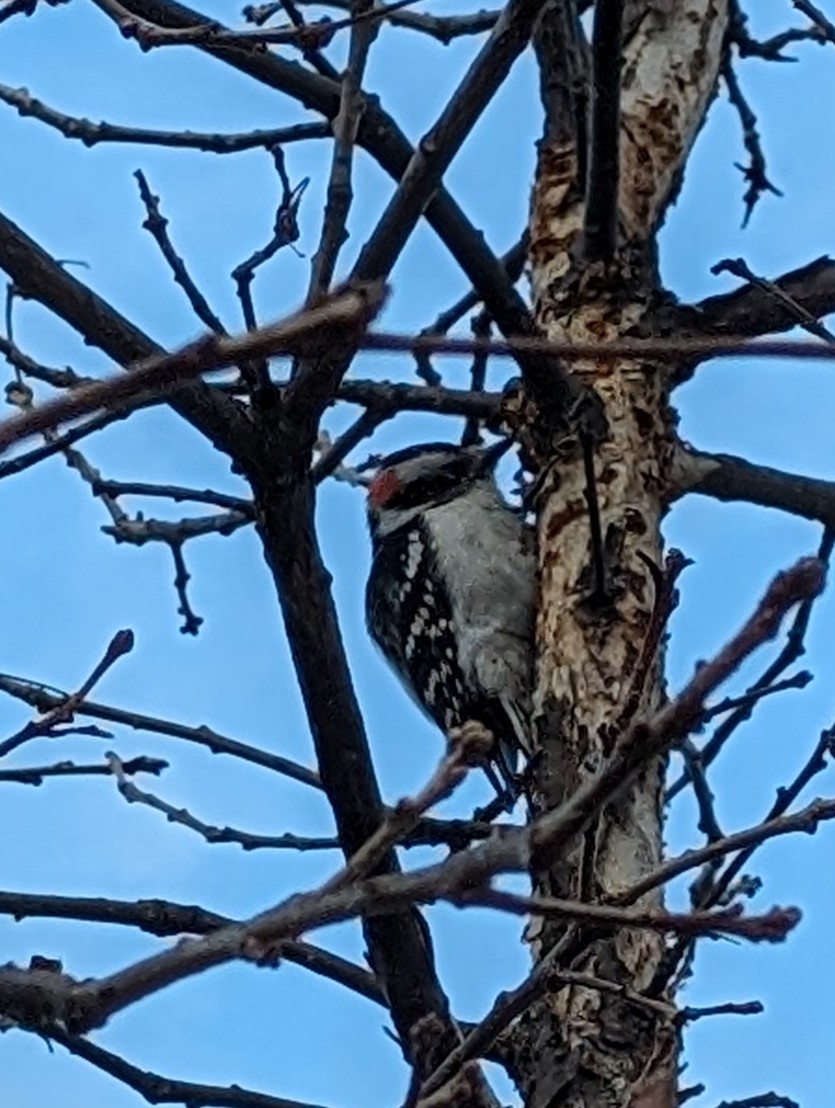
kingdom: Animalia
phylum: Chordata
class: Aves
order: Piciformes
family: Picidae
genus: Dryobates
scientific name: Dryobates pubescens
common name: Downy woodpecker
